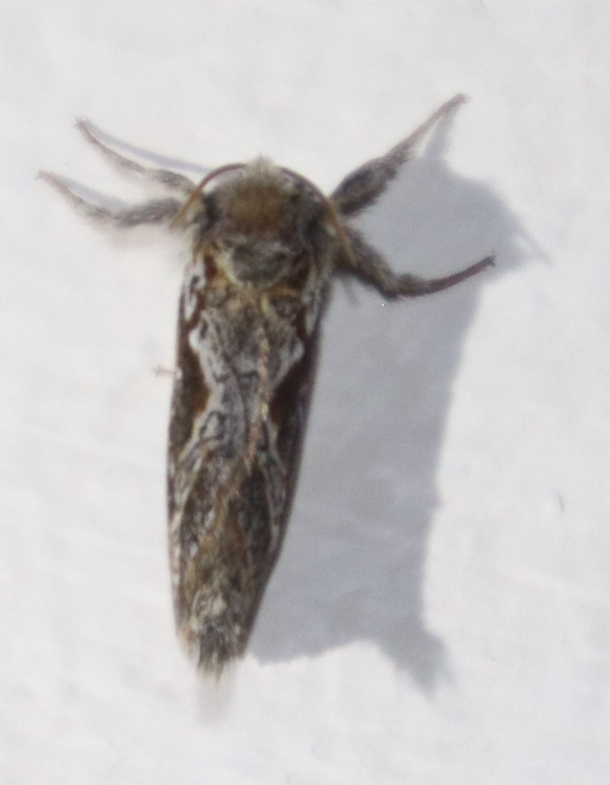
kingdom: Animalia
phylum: Arthropoda
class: Insecta
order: Lepidoptera
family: Hepialidae
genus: Eudalaca
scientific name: Eudalaca orthocosma
